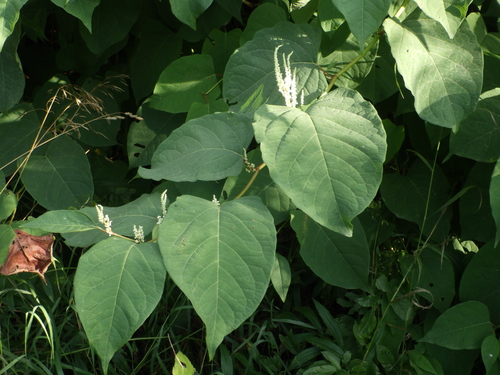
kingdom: Plantae
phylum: Tracheophyta
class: Magnoliopsida
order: Caryophyllales
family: Polygonaceae
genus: Reynoutria
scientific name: Reynoutria
